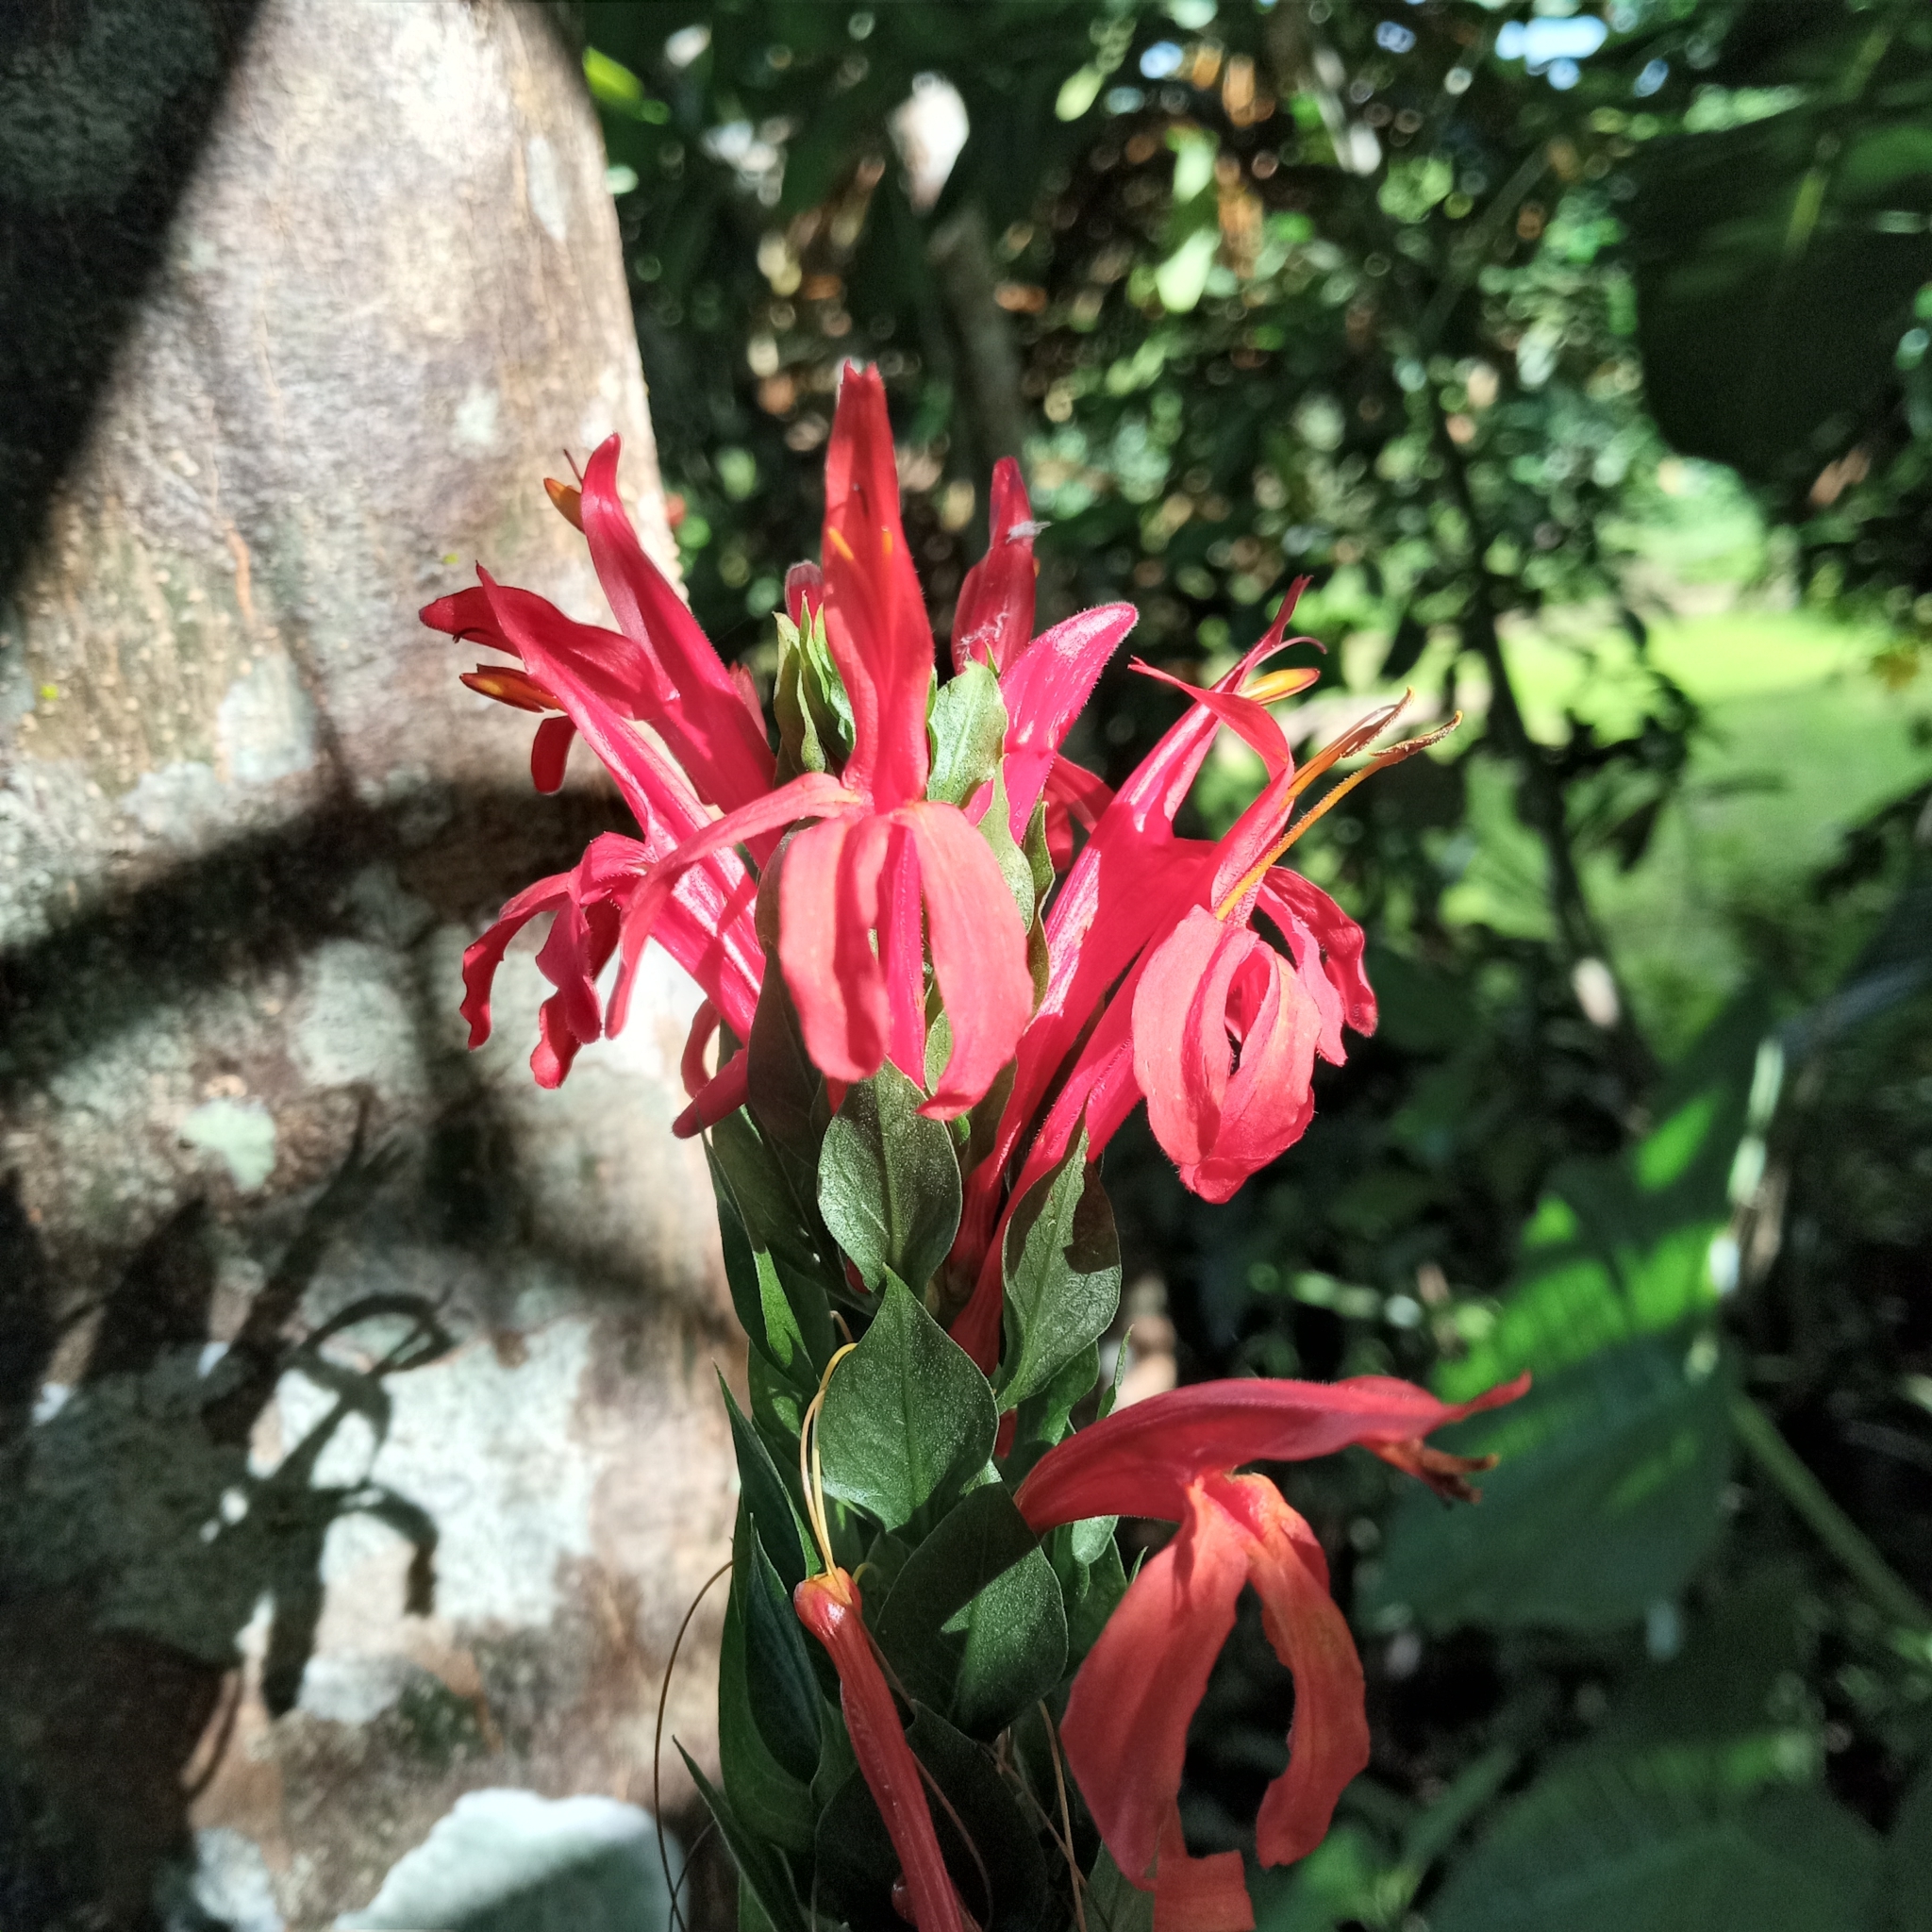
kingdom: Plantae
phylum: Tracheophyta
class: Magnoliopsida
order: Lamiales
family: Acanthaceae
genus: Pachystachys
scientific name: Pachystachys coccinea
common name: Cardinal's-guard
